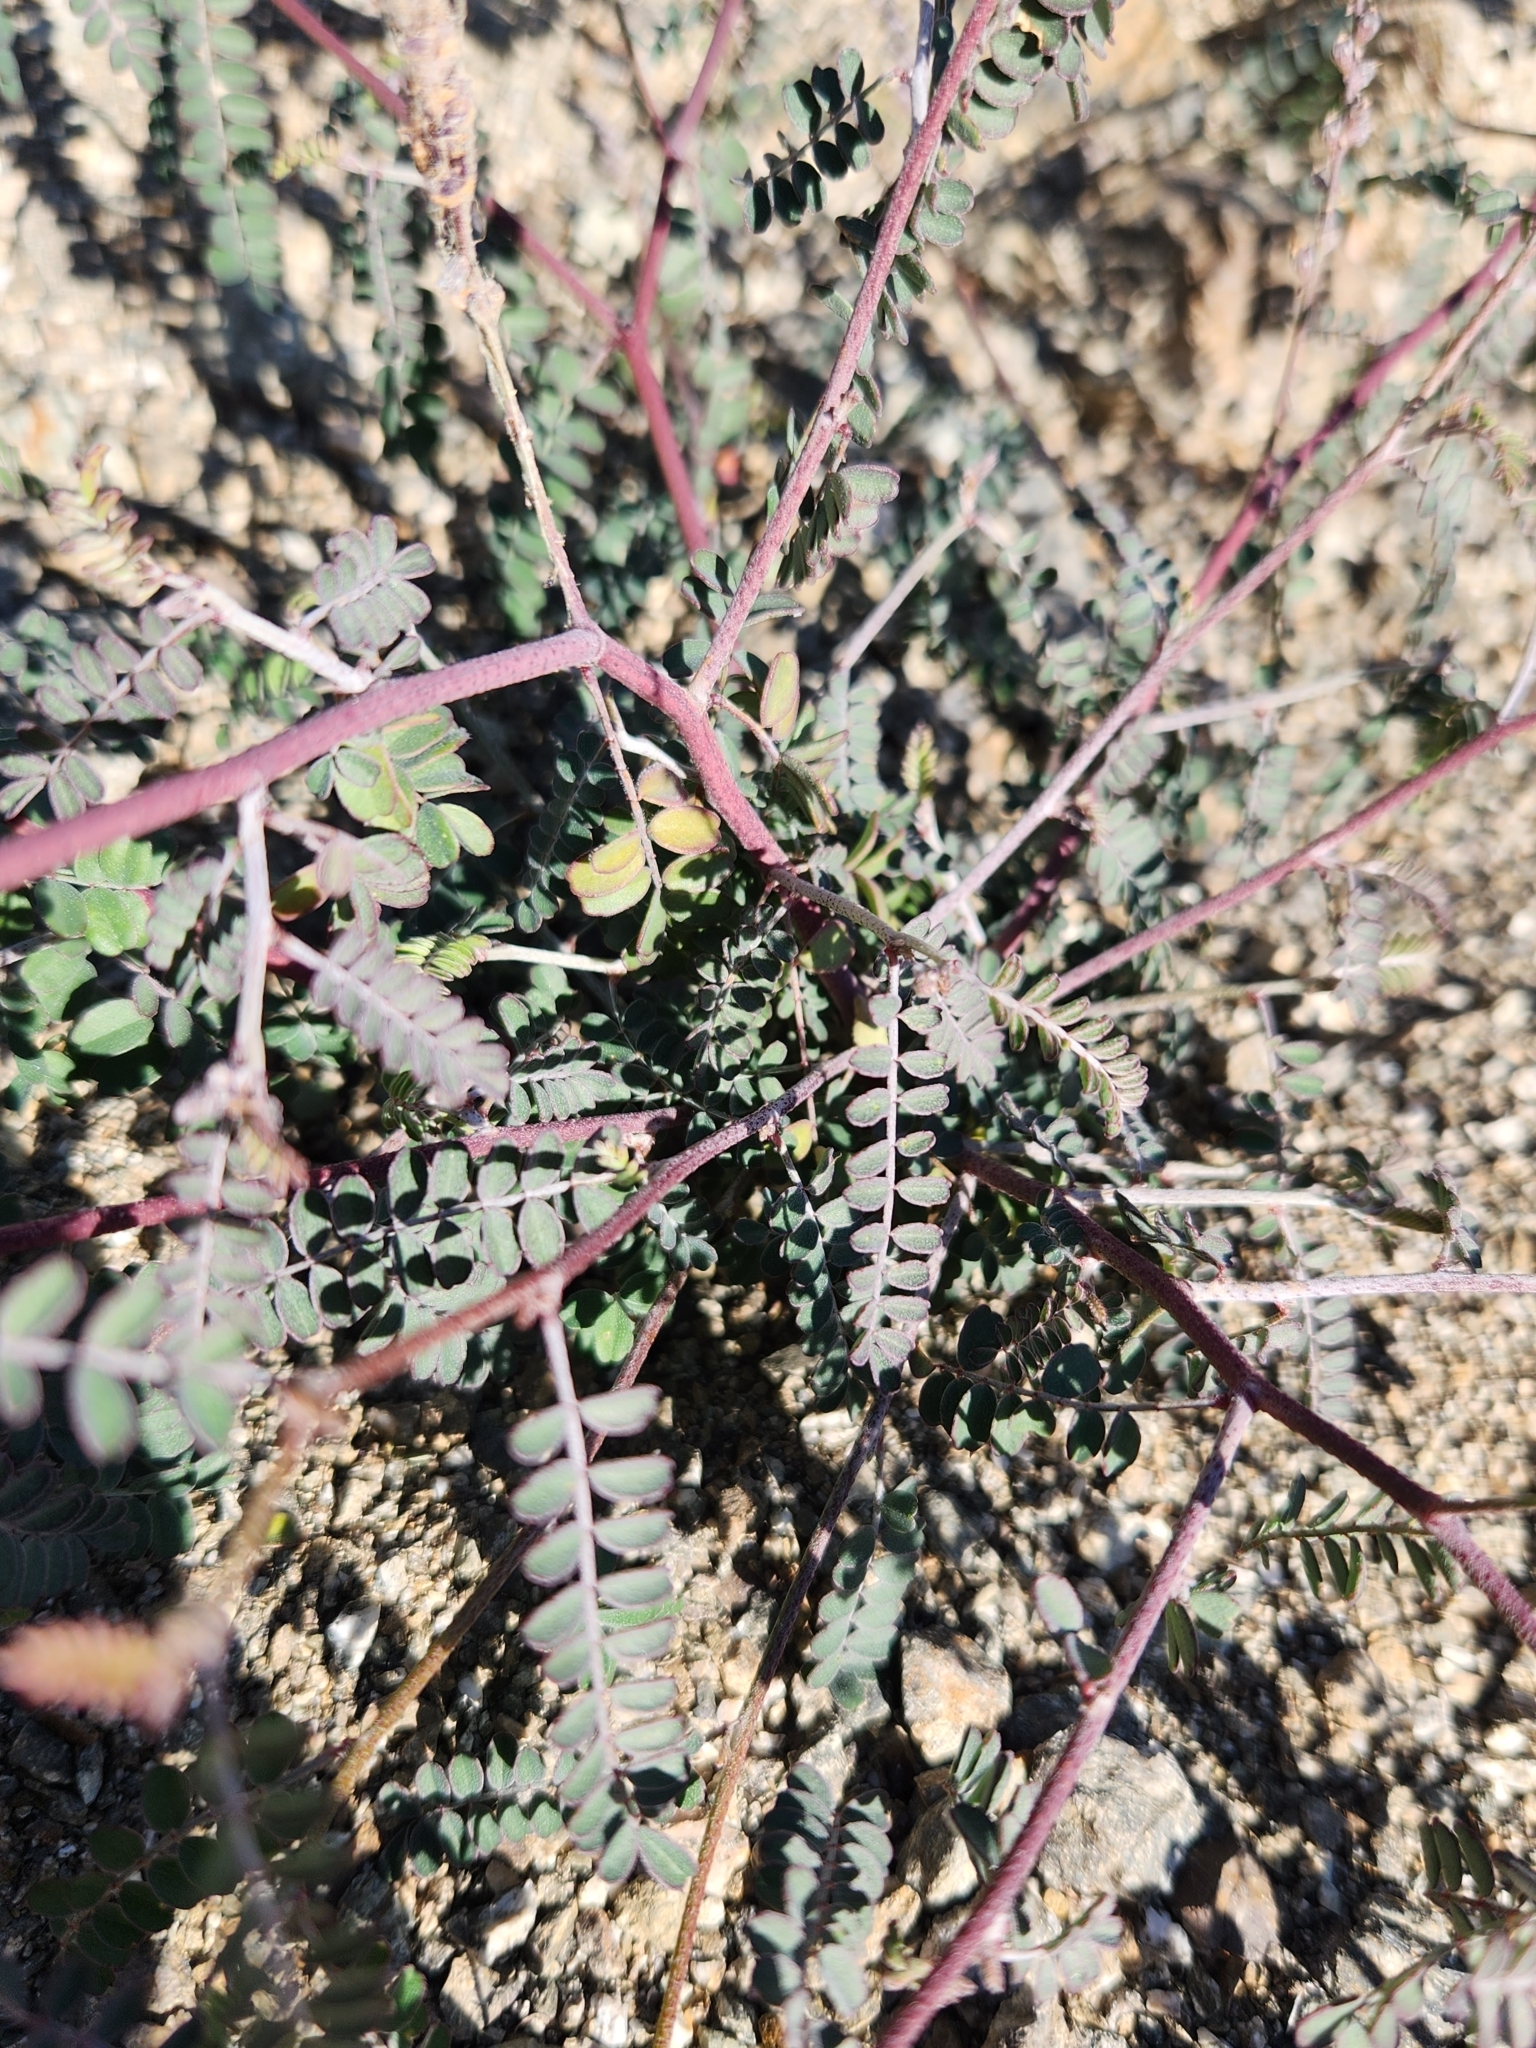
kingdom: Plantae
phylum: Tracheophyta
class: Magnoliopsida
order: Fabales
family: Fabaceae
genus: Marina
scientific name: Marina parryi
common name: Parry's marina
